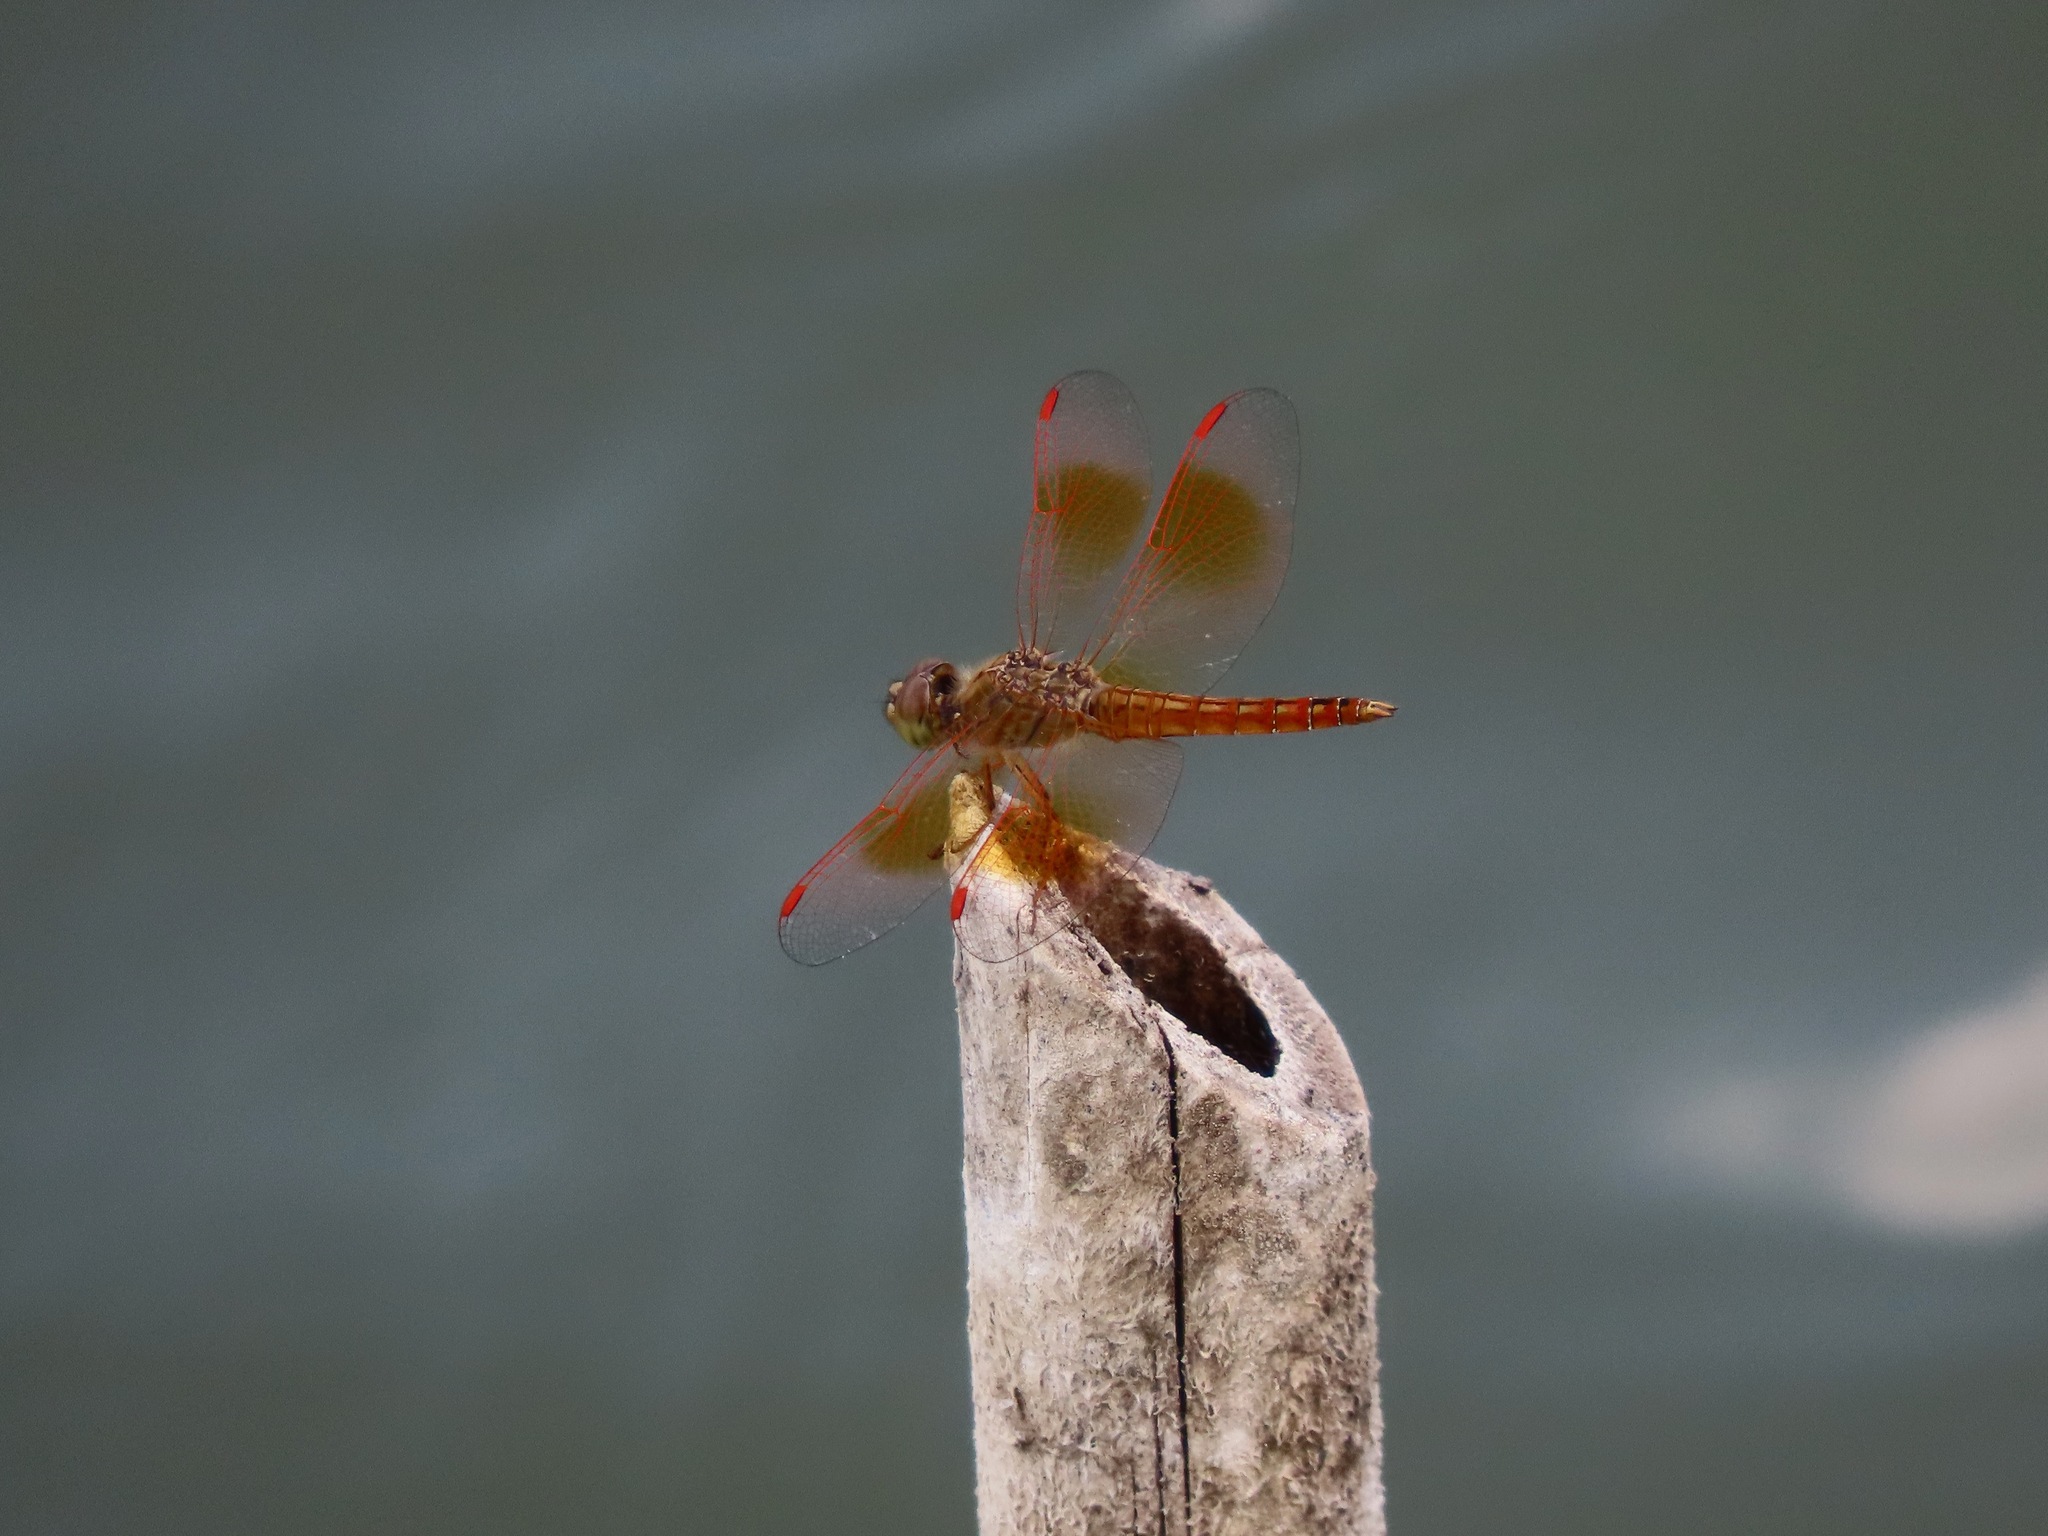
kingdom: Animalia
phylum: Arthropoda
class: Insecta
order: Odonata
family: Libellulidae
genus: Brachythemis
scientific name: Brachythemis contaminata
